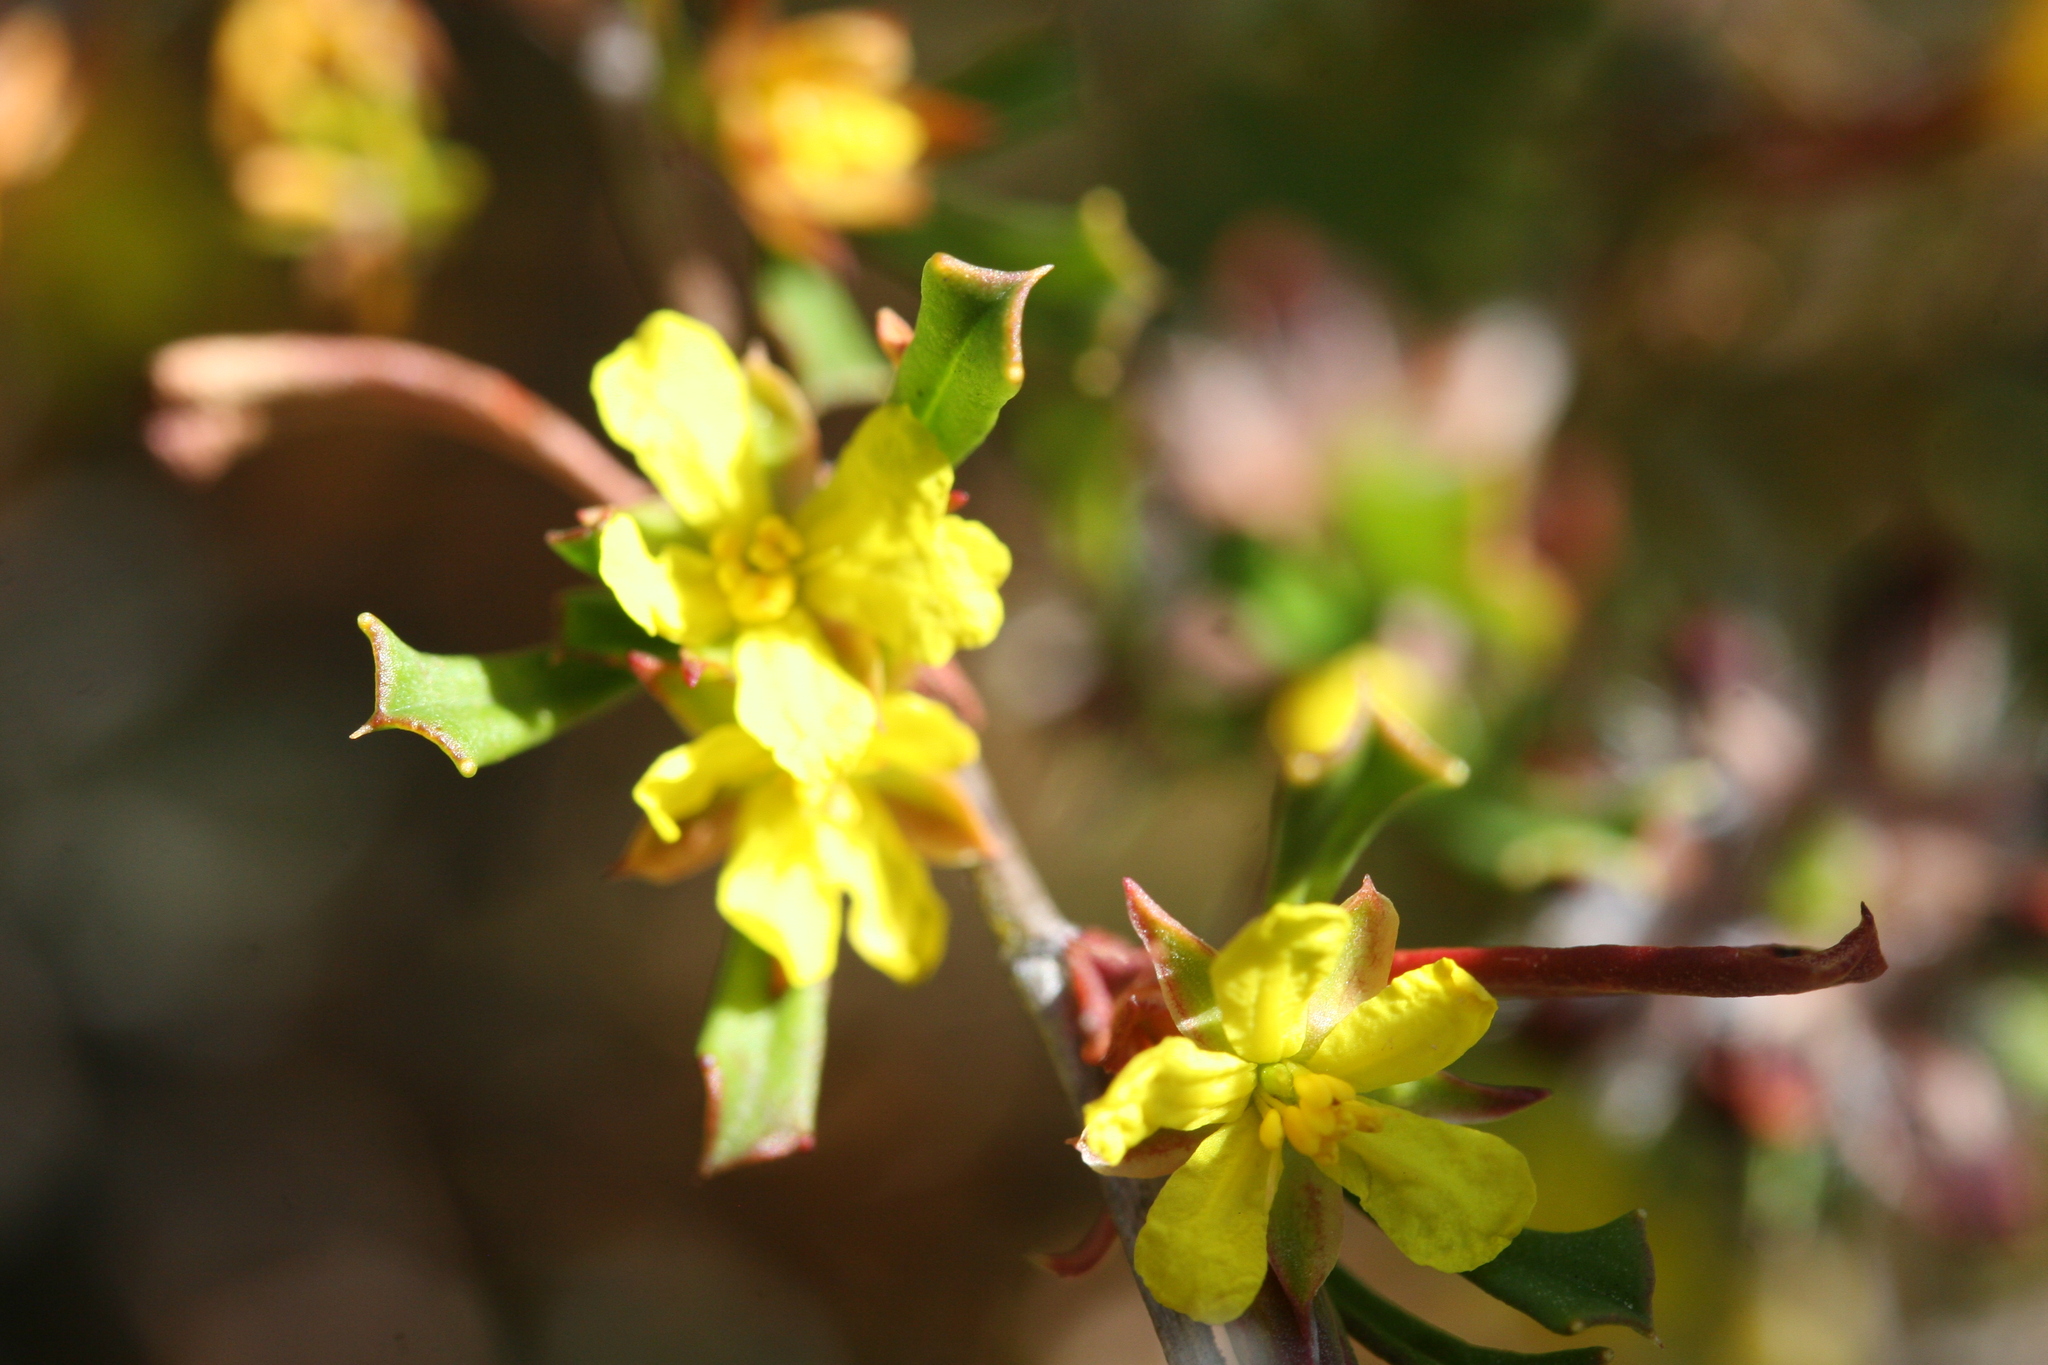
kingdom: Plantae
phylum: Tracheophyta
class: Magnoliopsida
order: Dilleniales
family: Dilleniaceae
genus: Hibbertia
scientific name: Hibbertia racemosa
